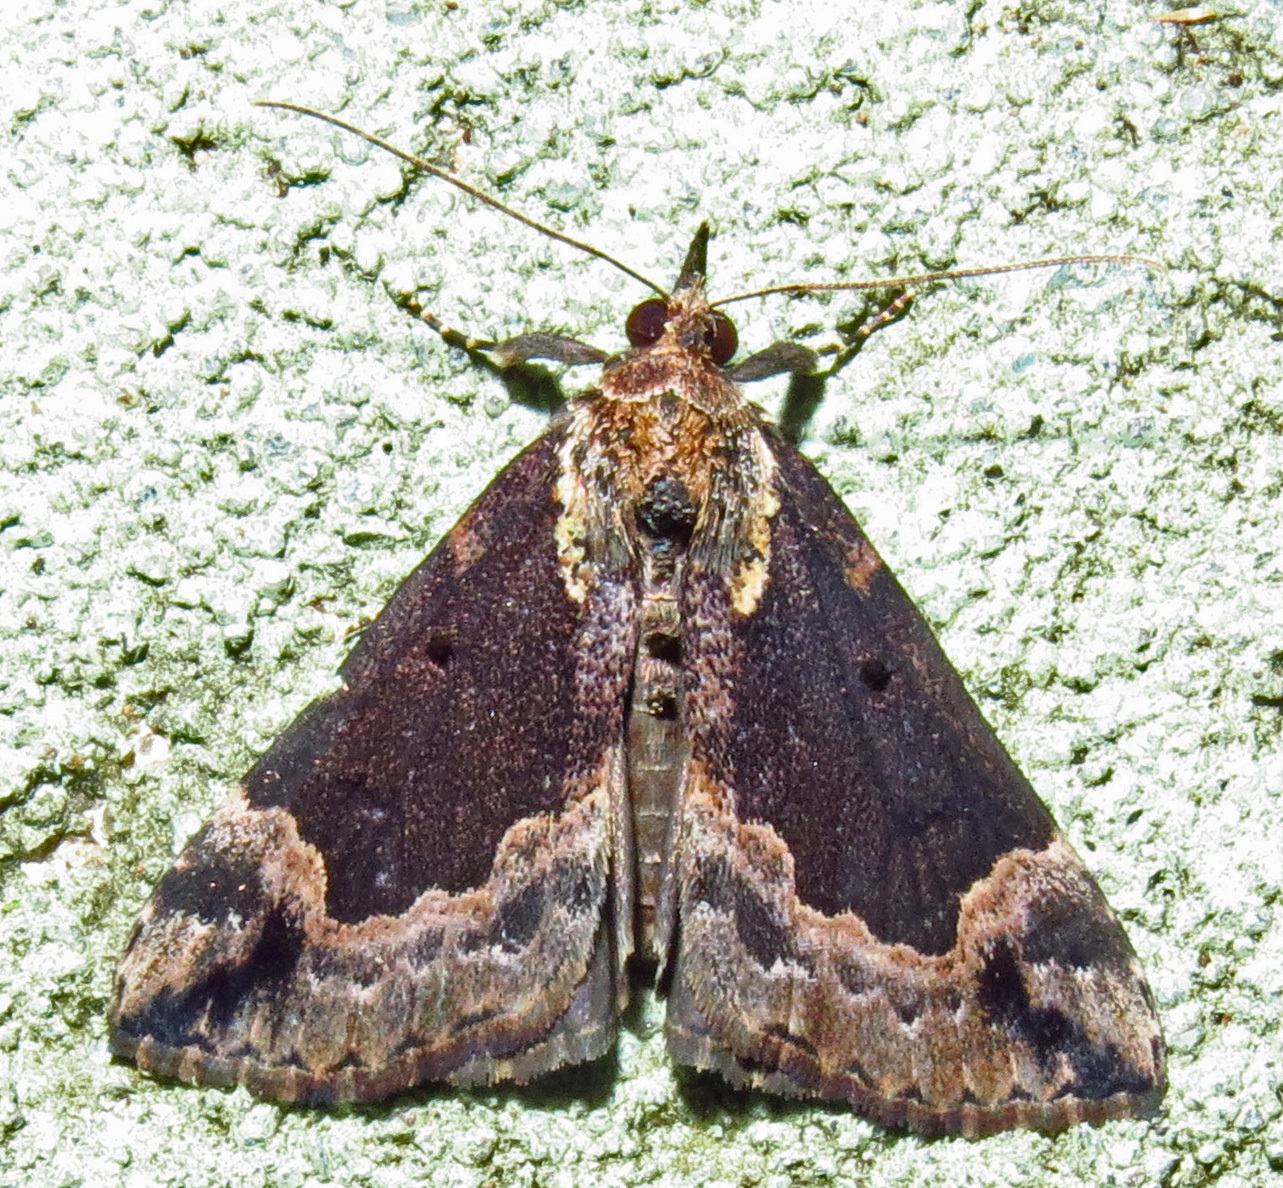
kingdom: Animalia
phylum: Arthropoda
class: Insecta
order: Lepidoptera
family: Erebidae
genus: Hypena
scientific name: Hypena baltimoralis
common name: Baltimore snout
